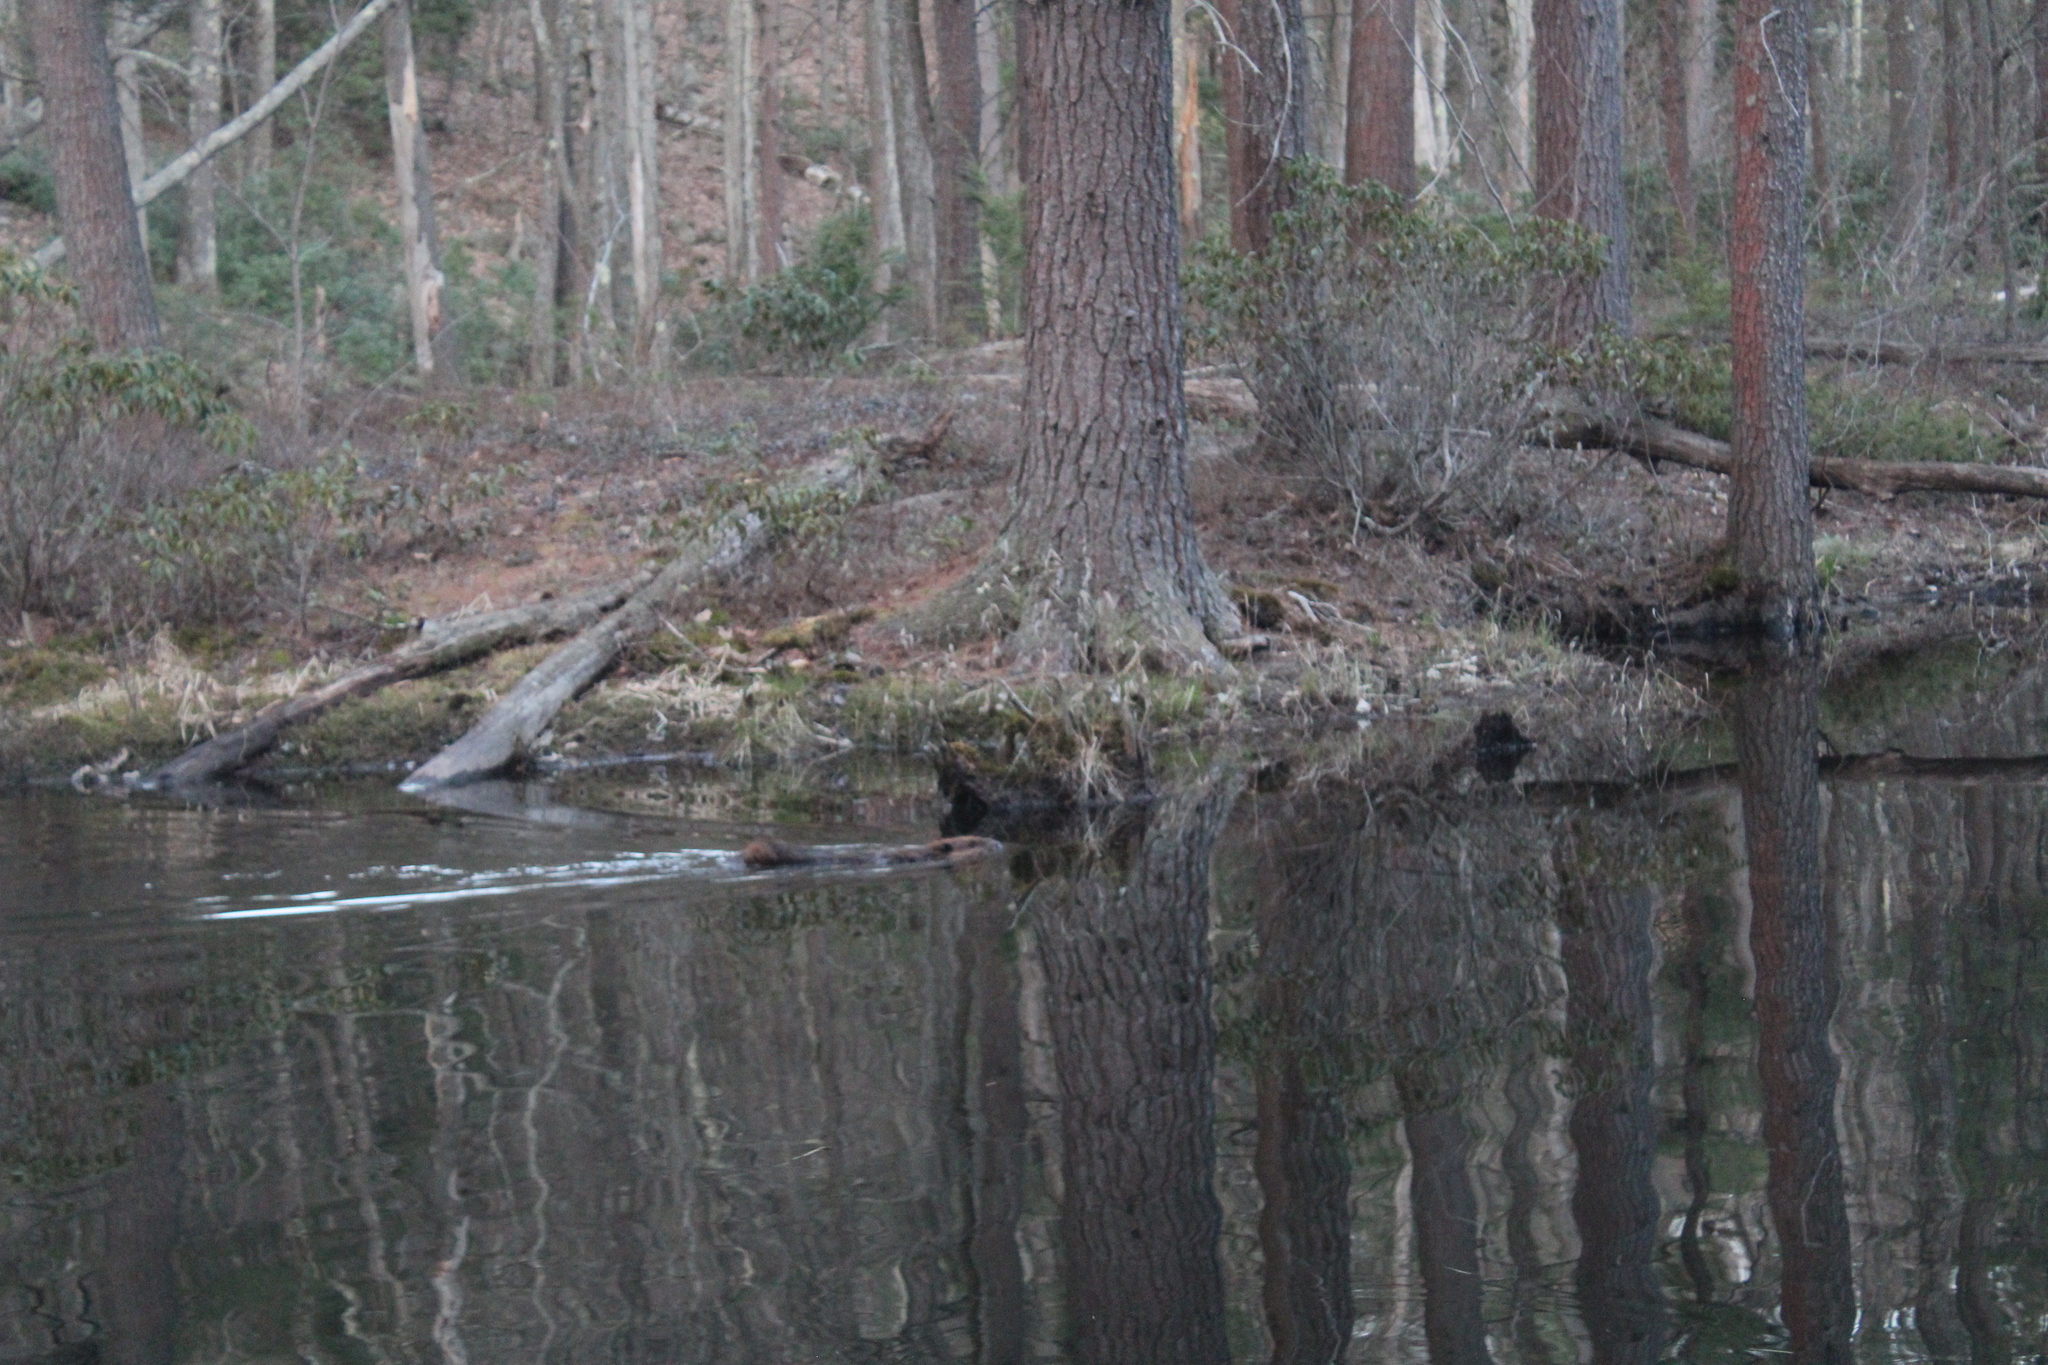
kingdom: Animalia
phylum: Chordata
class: Mammalia
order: Rodentia
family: Castoridae
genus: Castor
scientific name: Castor canadensis
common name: American beaver
